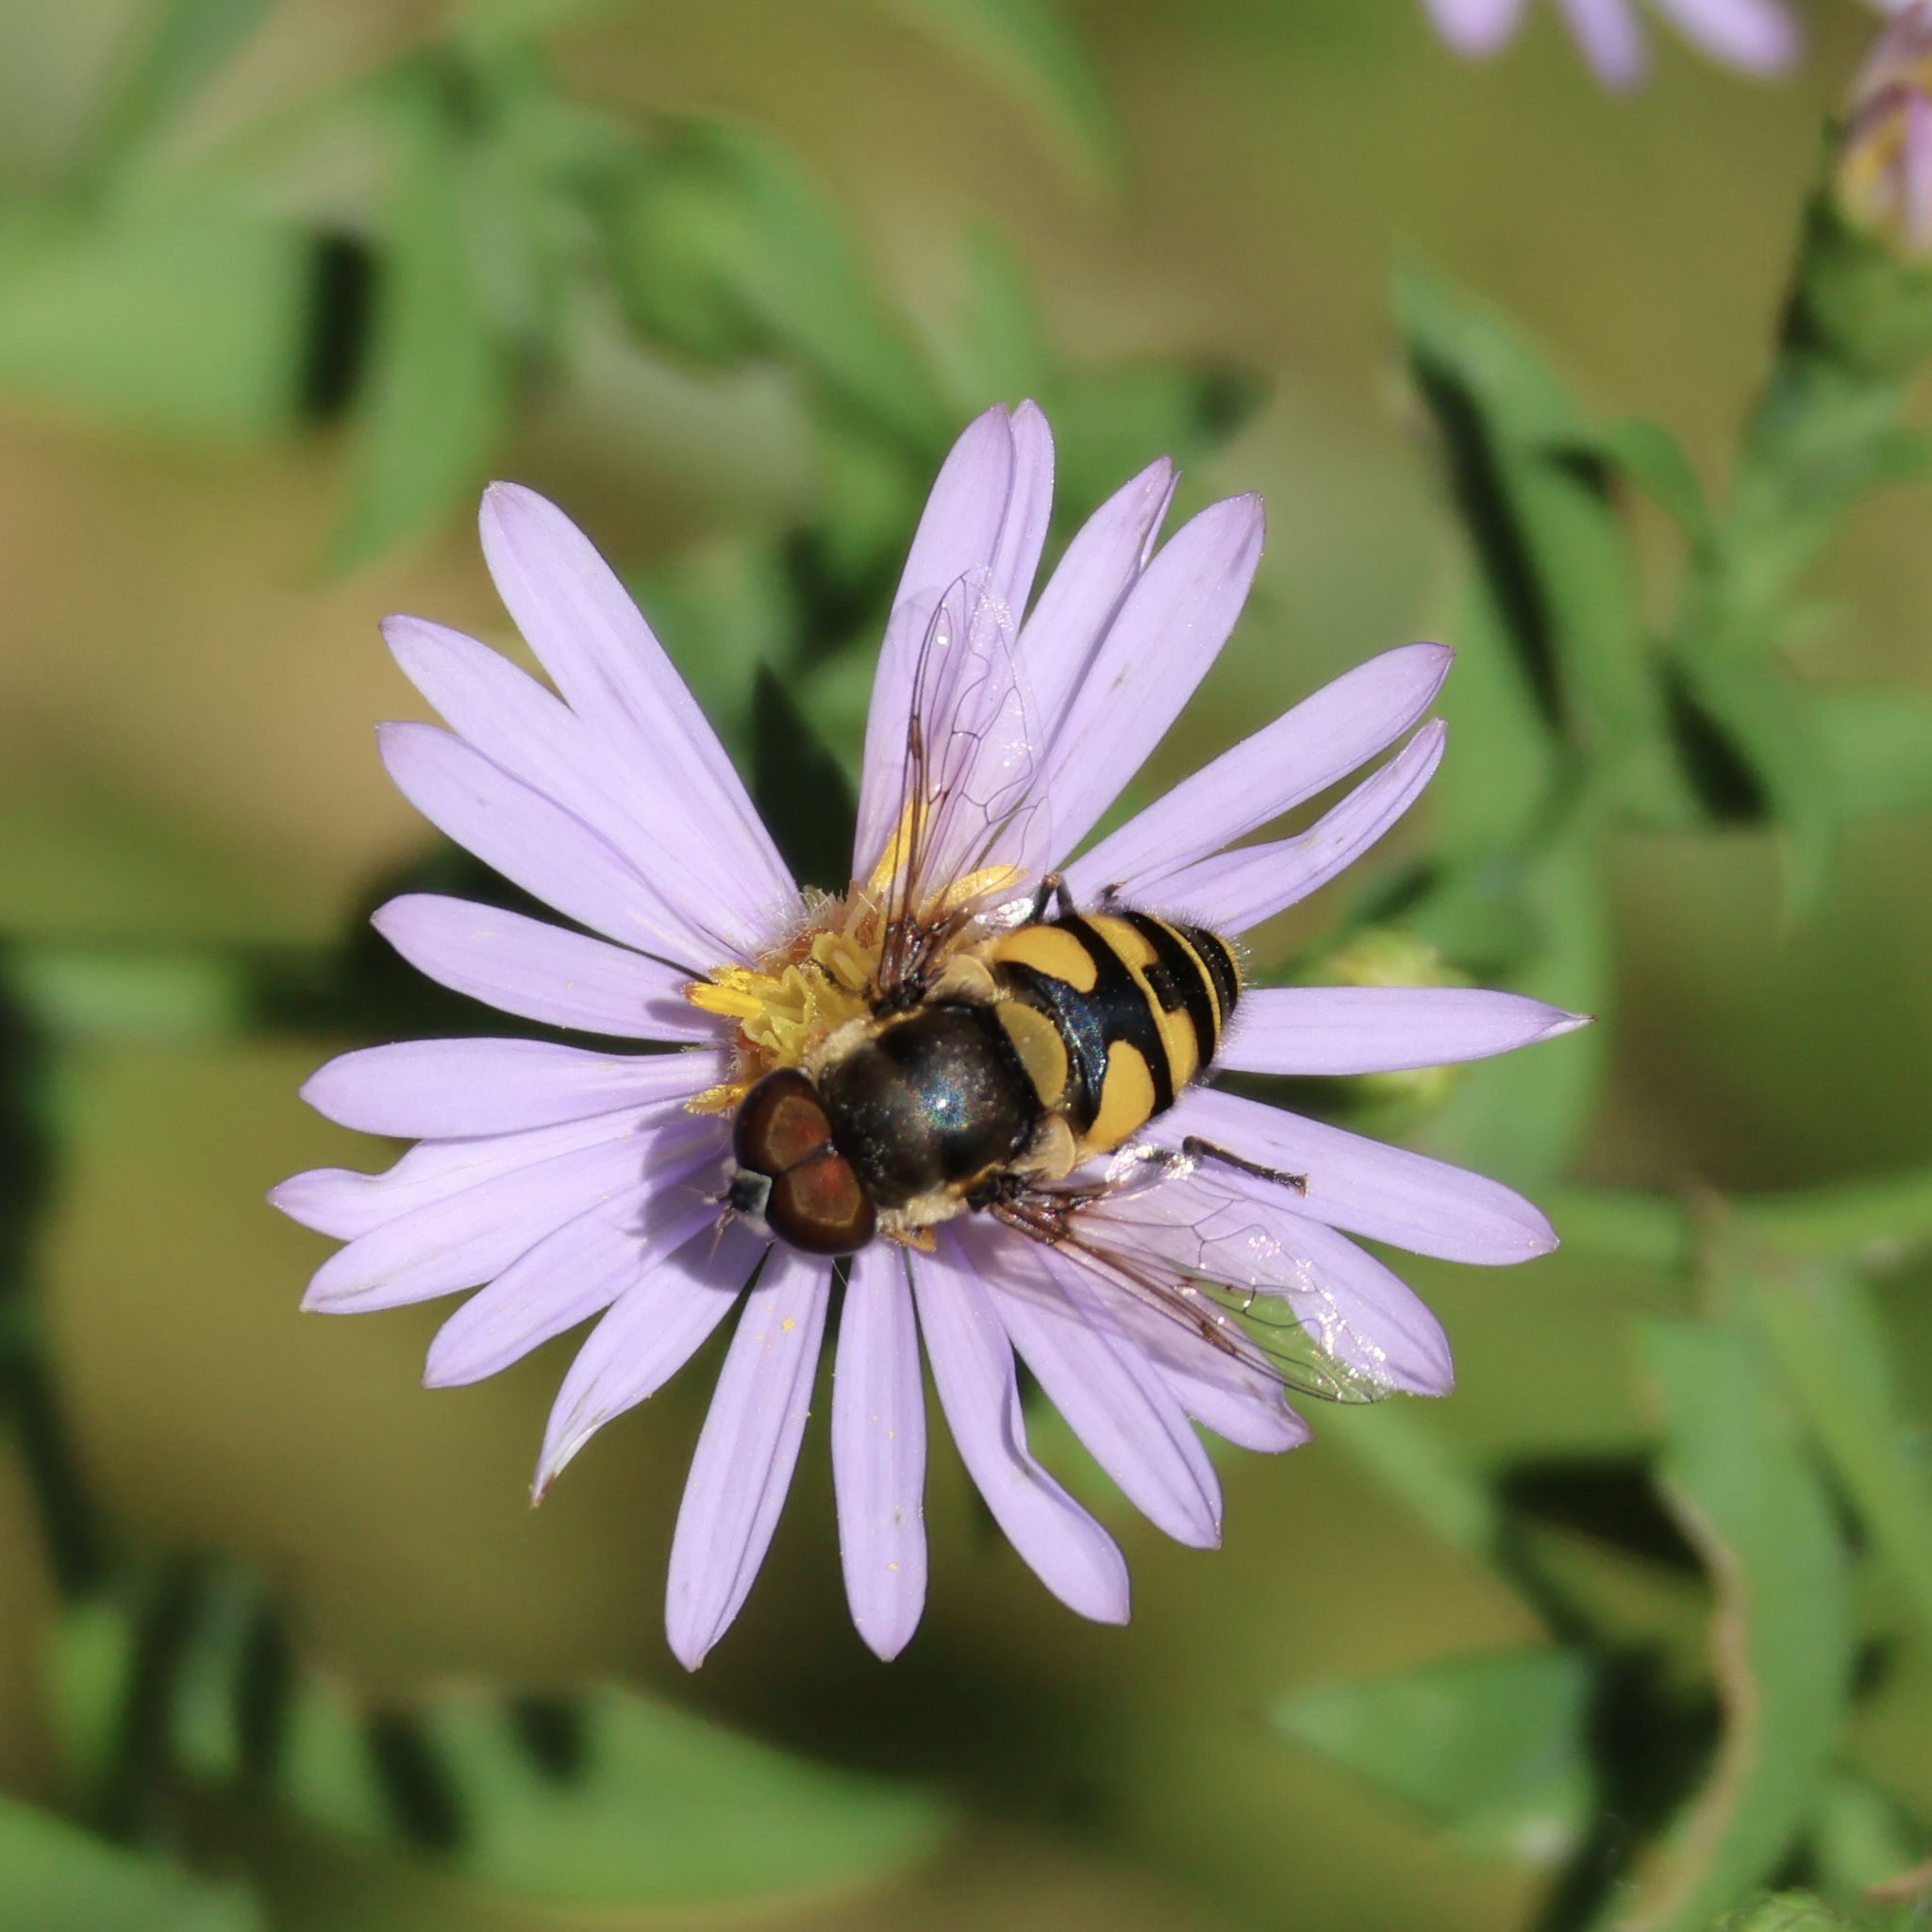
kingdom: Animalia
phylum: Arthropoda
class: Insecta
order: Diptera
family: Syrphidae
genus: Eristalis
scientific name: Eristalis transversa
